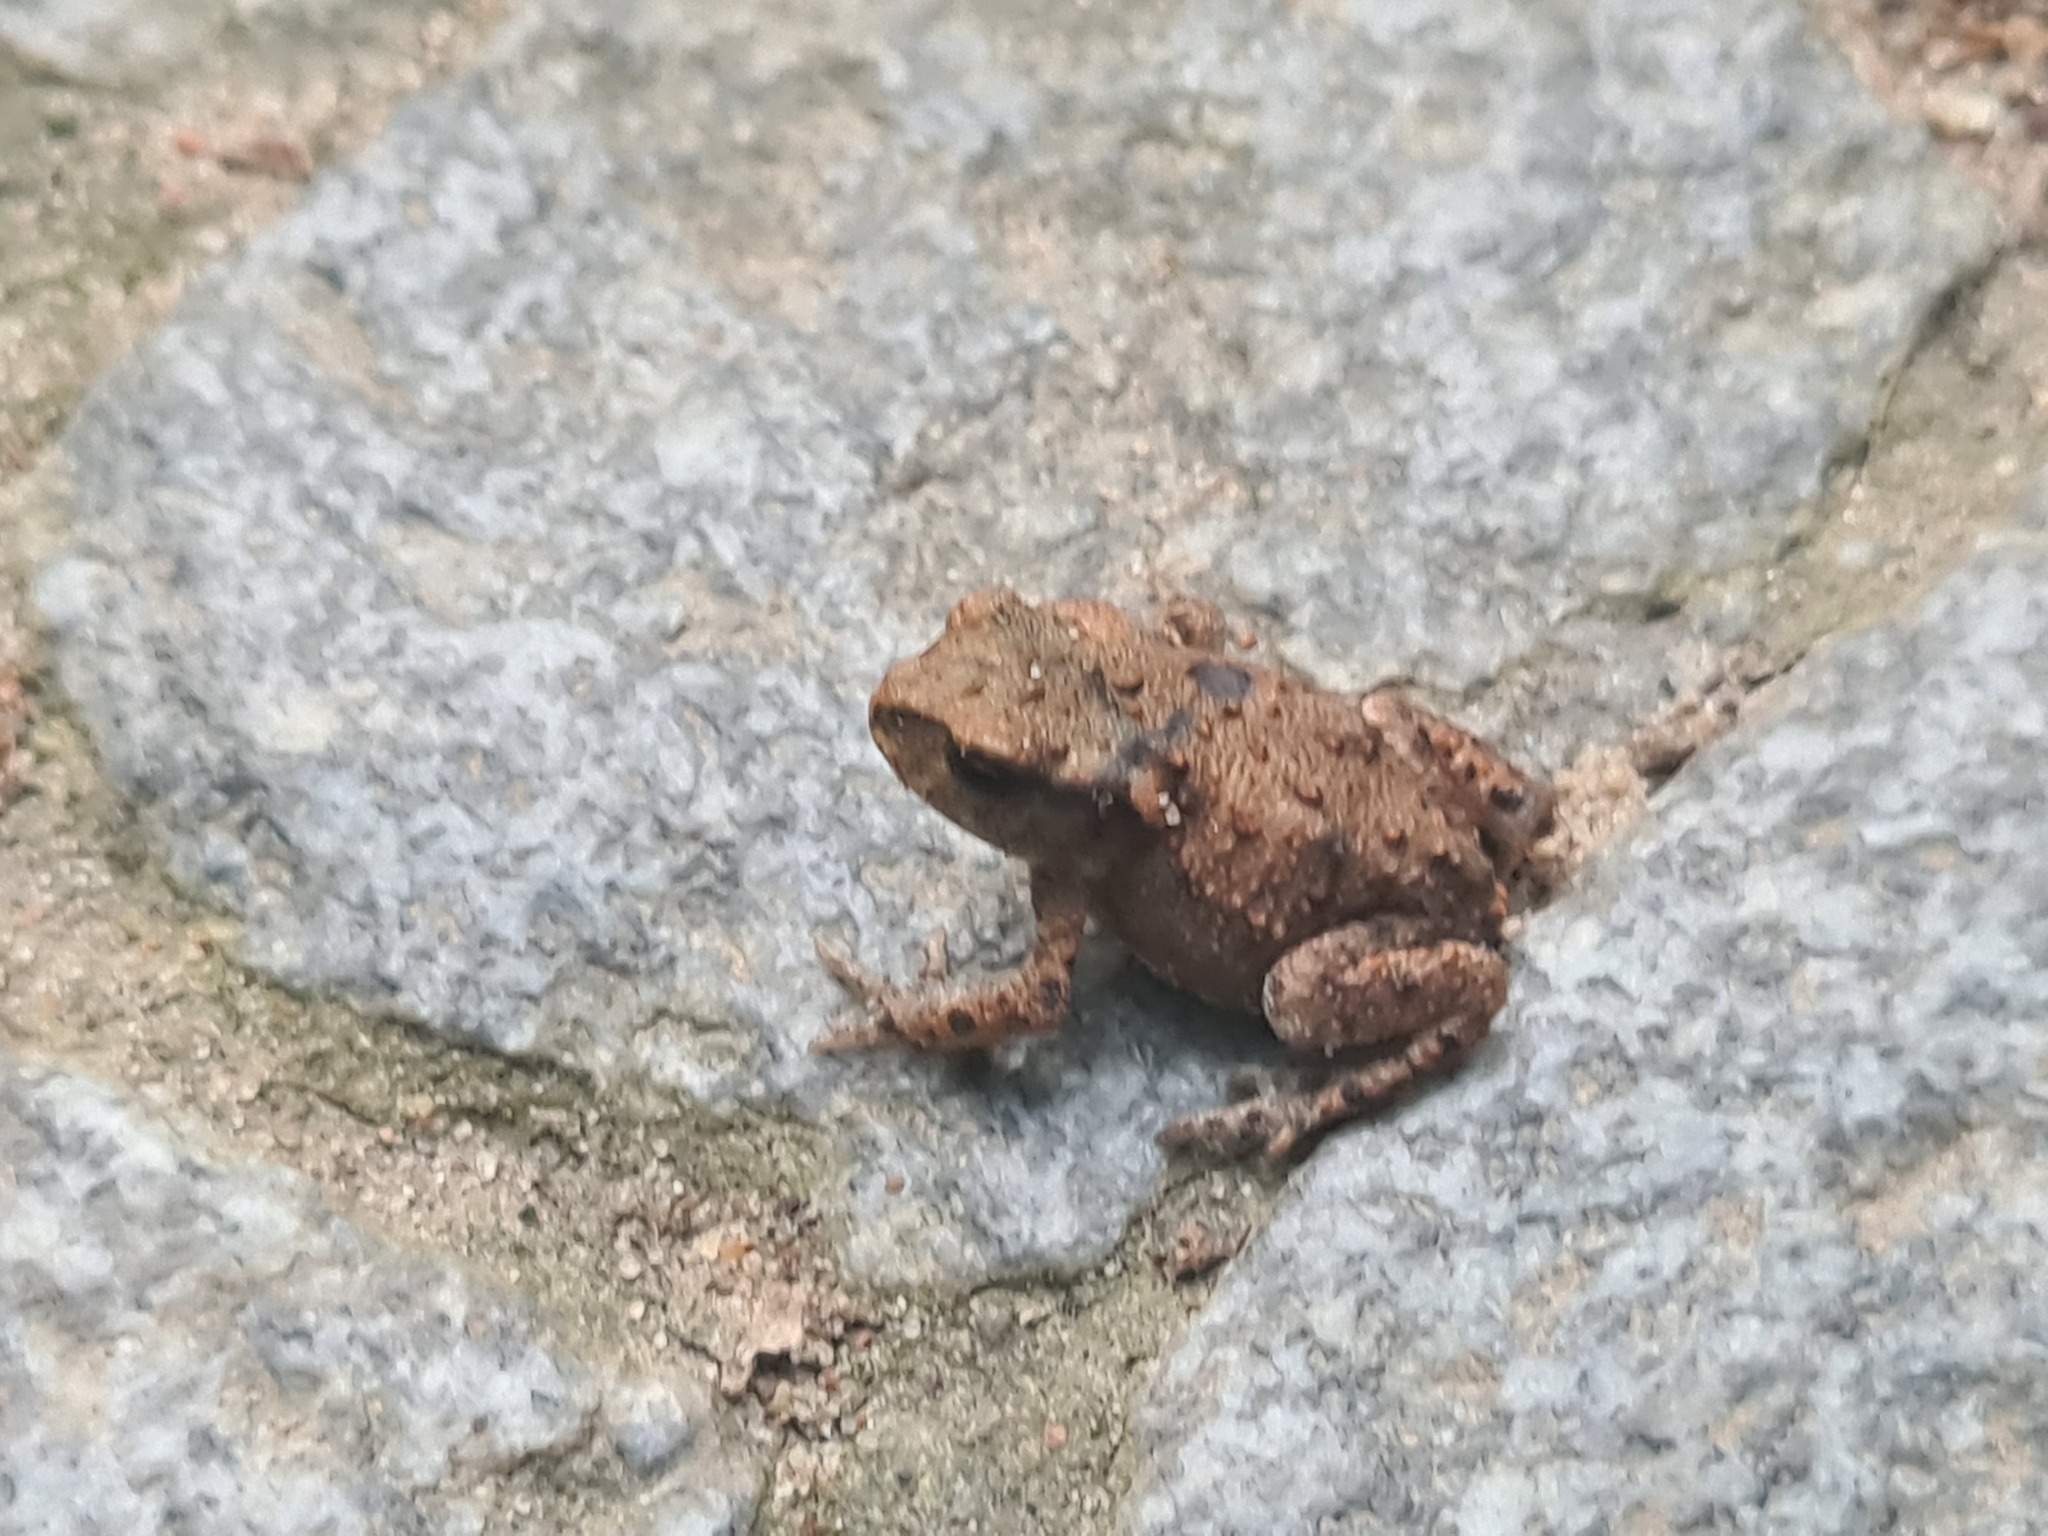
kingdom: Animalia
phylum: Chordata
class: Amphibia
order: Anura
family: Bufonidae
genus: Bufo
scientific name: Bufo bufo
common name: Common toad
